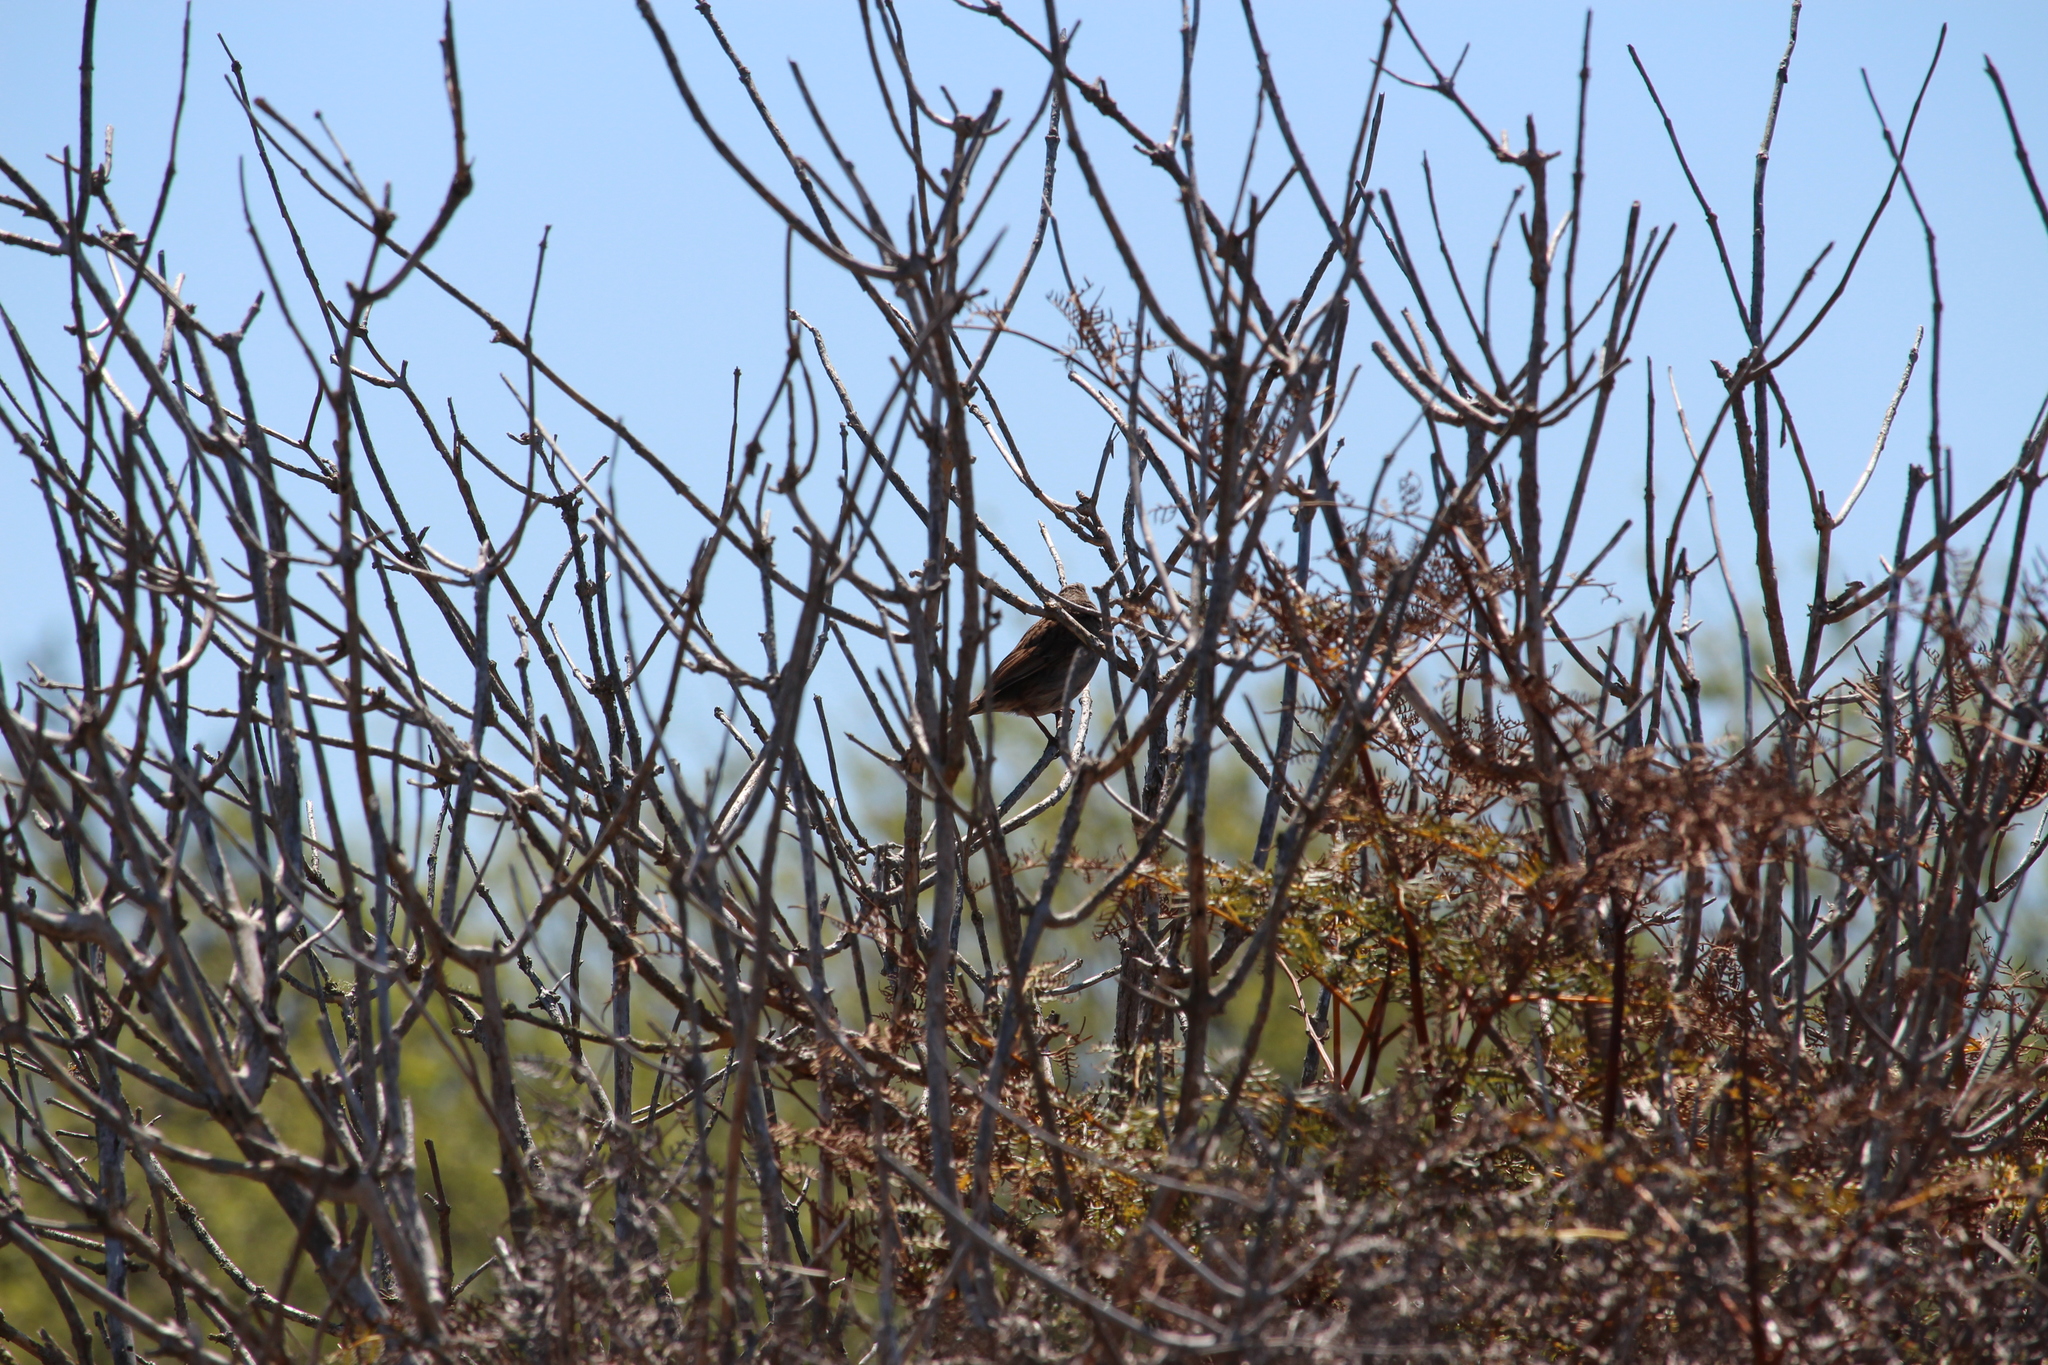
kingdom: Animalia
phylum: Chordata
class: Aves
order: Passeriformes
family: Prunellidae
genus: Prunella
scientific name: Prunella modularis
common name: Dunnock
